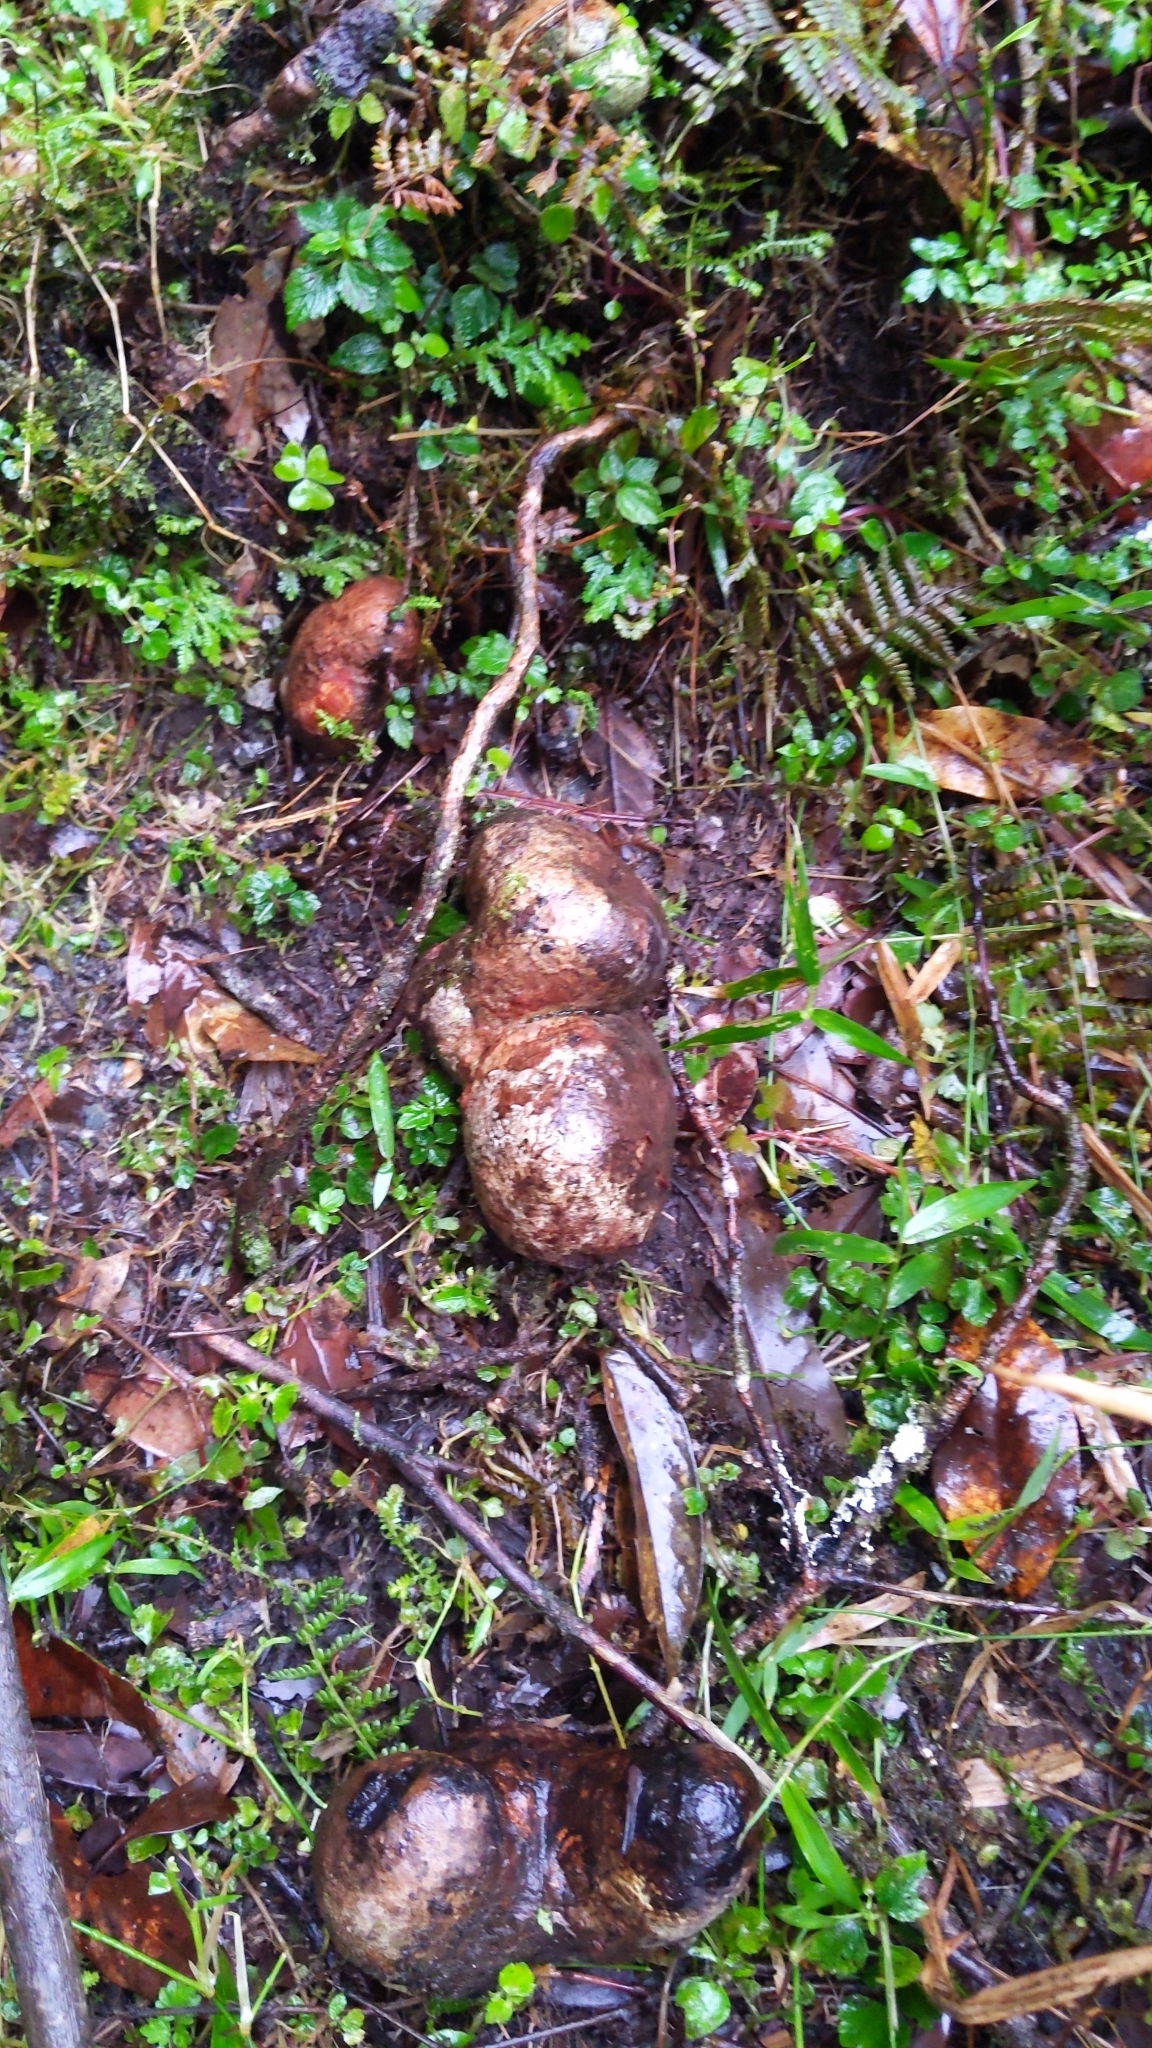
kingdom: Plantae
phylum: Tracheophyta
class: Magnoliopsida
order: Ericales
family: Ericaceae
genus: Vaccinium
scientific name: Vaccinium emarginatum
